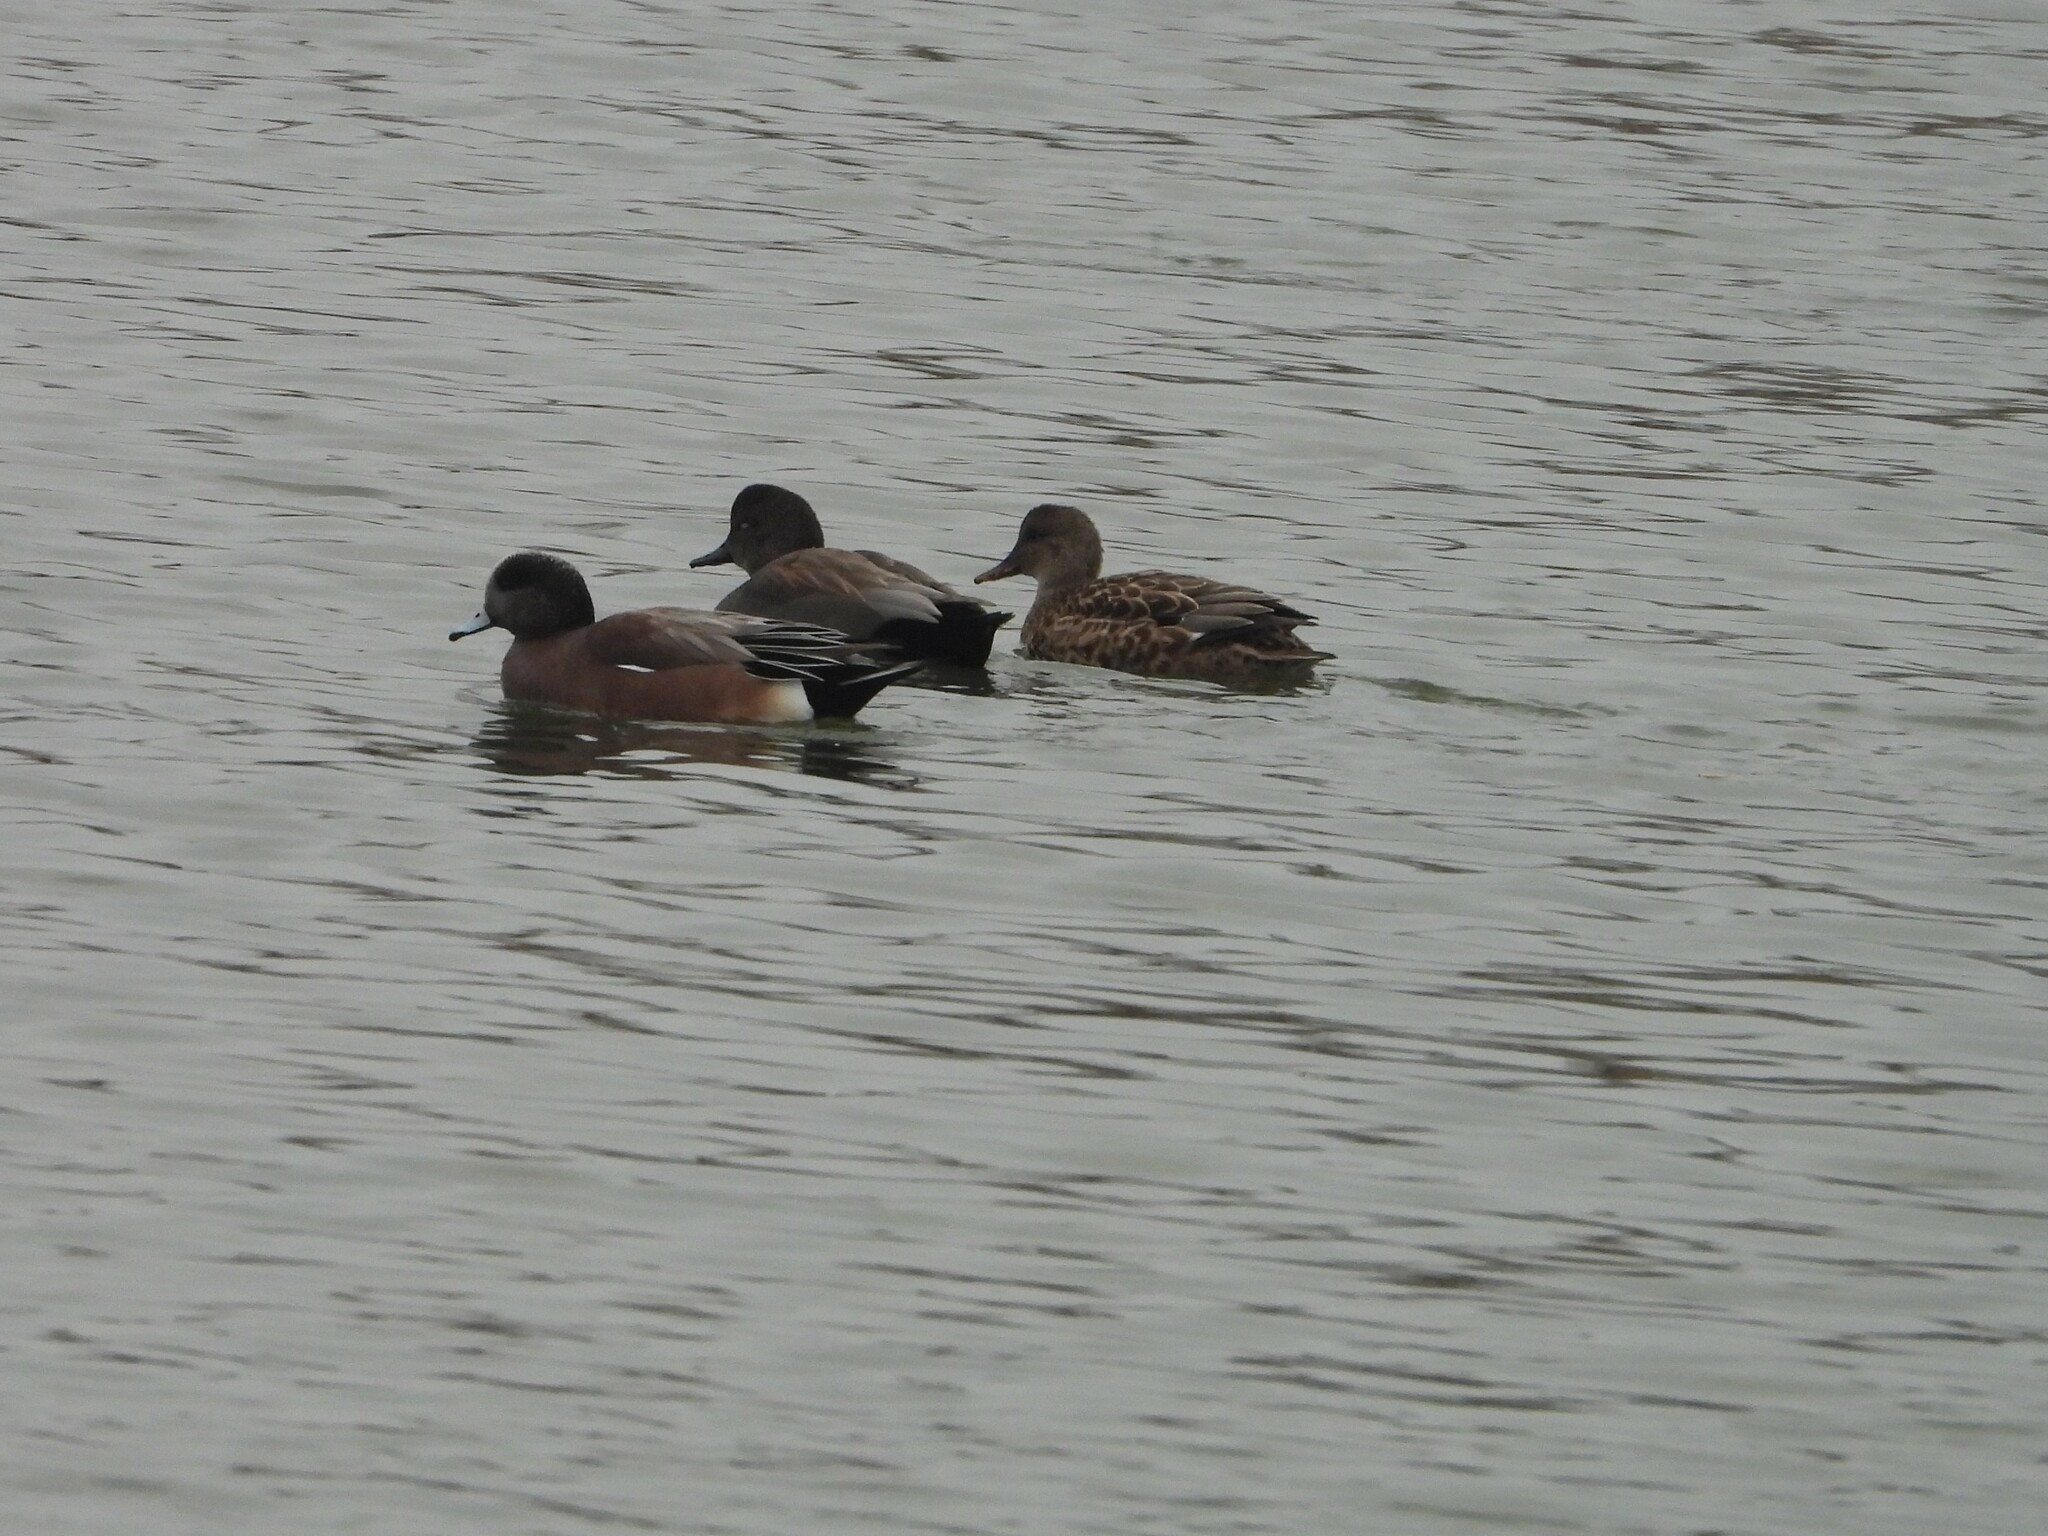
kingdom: Animalia
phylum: Chordata
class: Aves
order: Anseriformes
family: Anatidae
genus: Mareca
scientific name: Mareca strepera
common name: Gadwall
